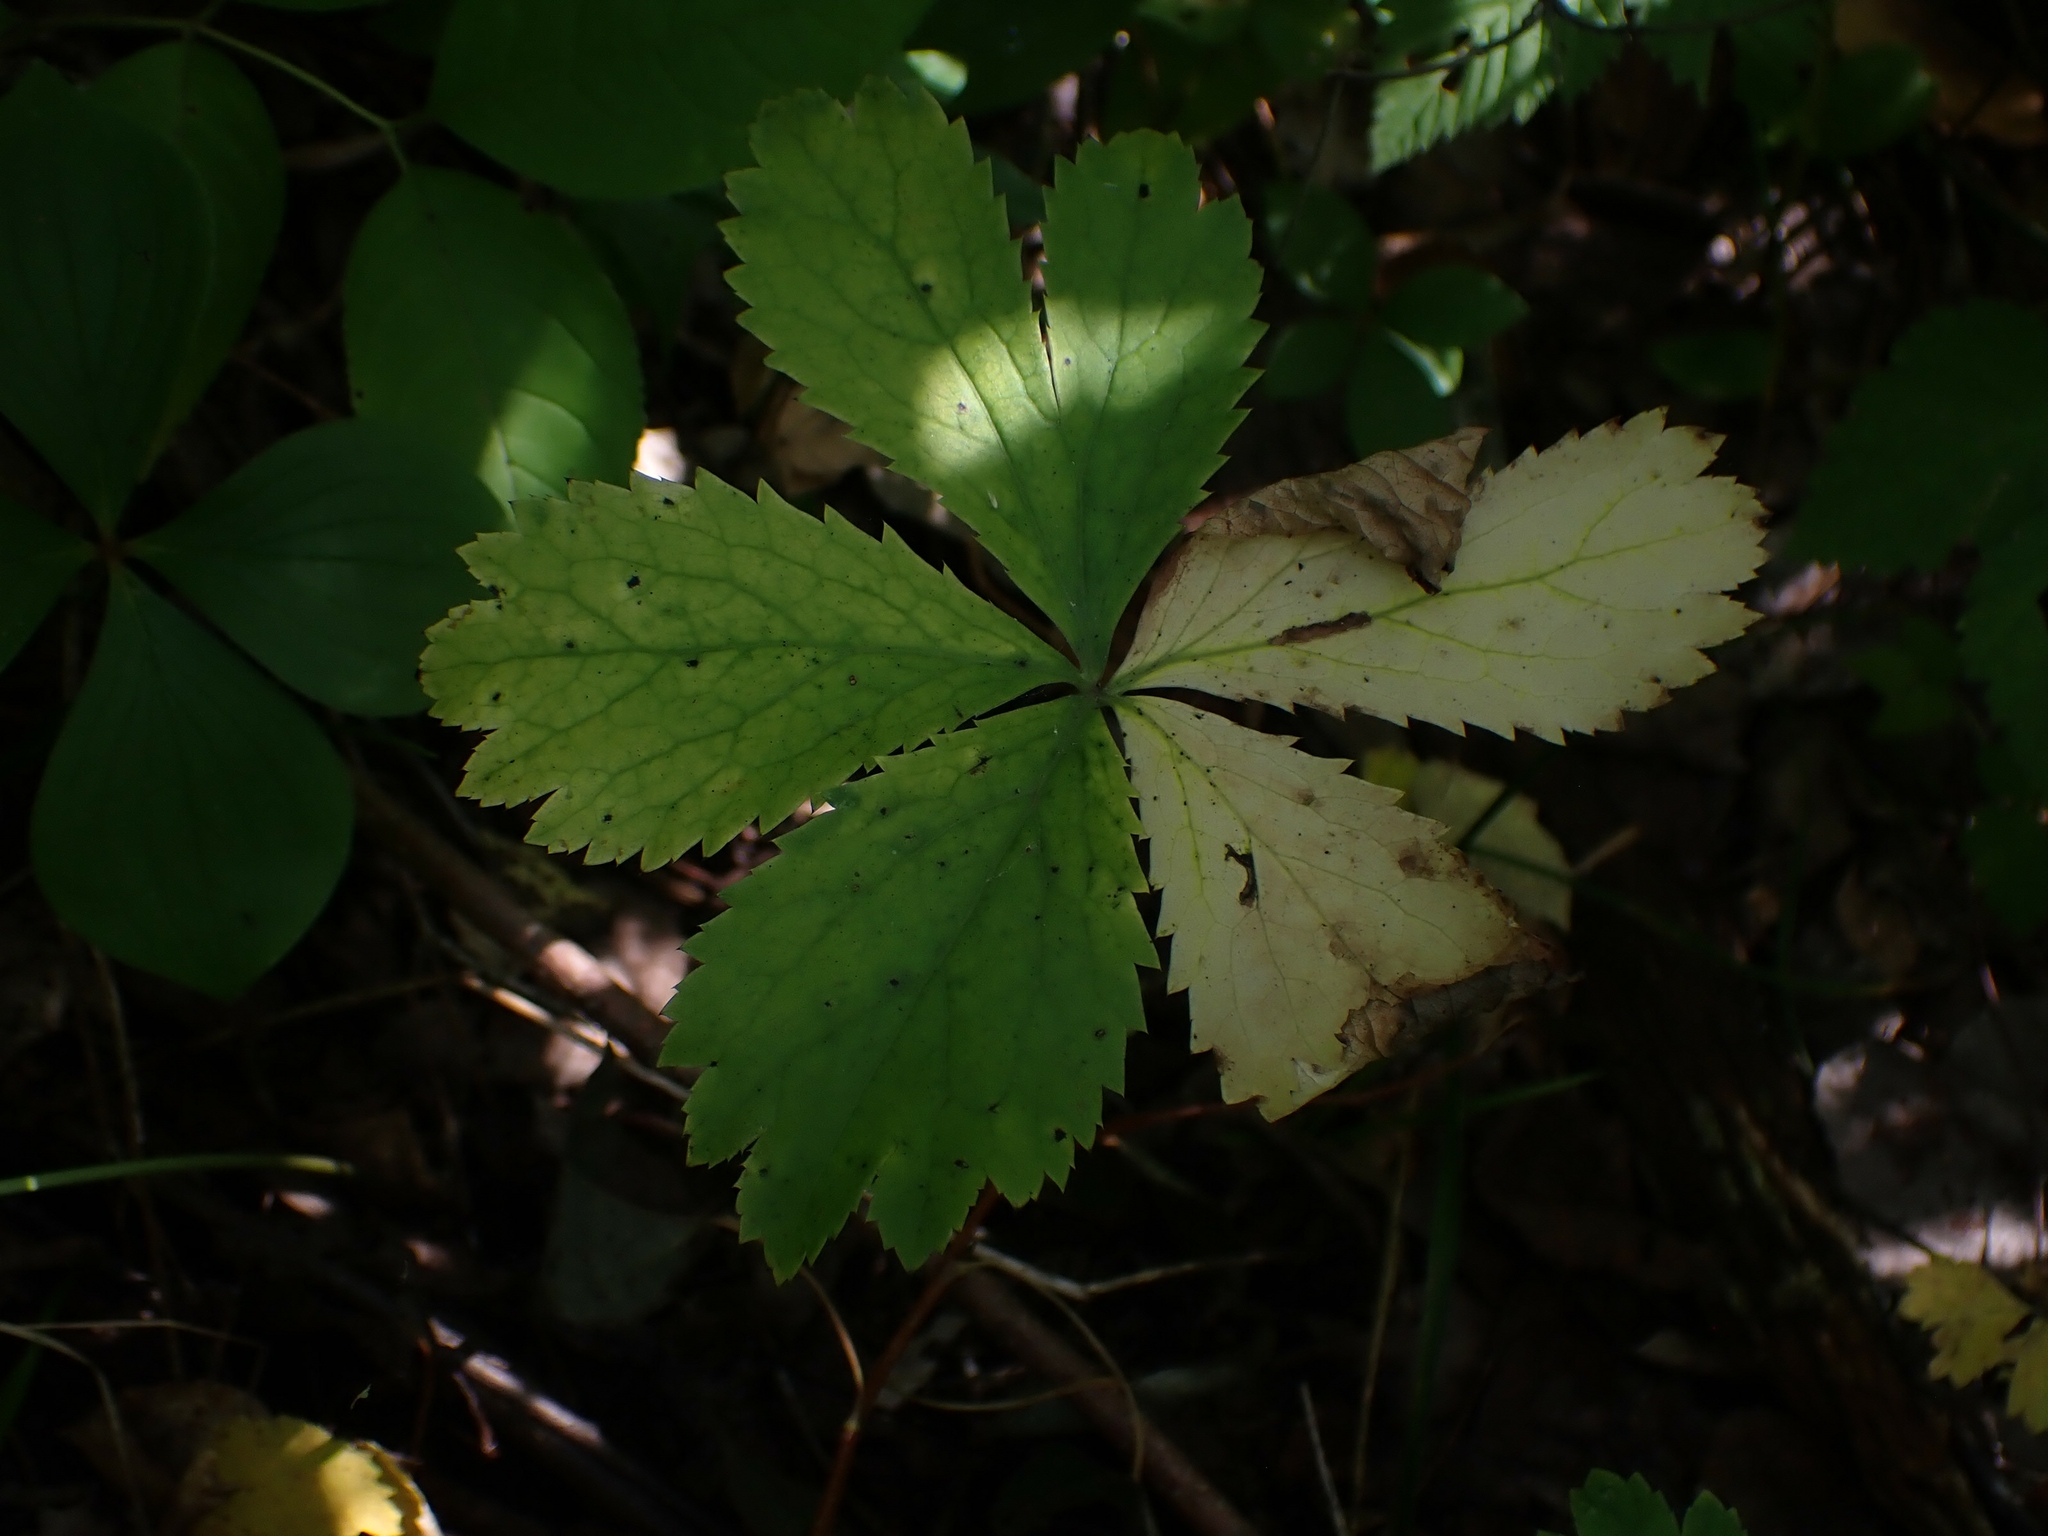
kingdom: Plantae
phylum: Tracheophyta
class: Magnoliopsida
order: Apiales
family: Apiaceae
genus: Sanicula
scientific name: Sanicula marilandica
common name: Black snakeroot
